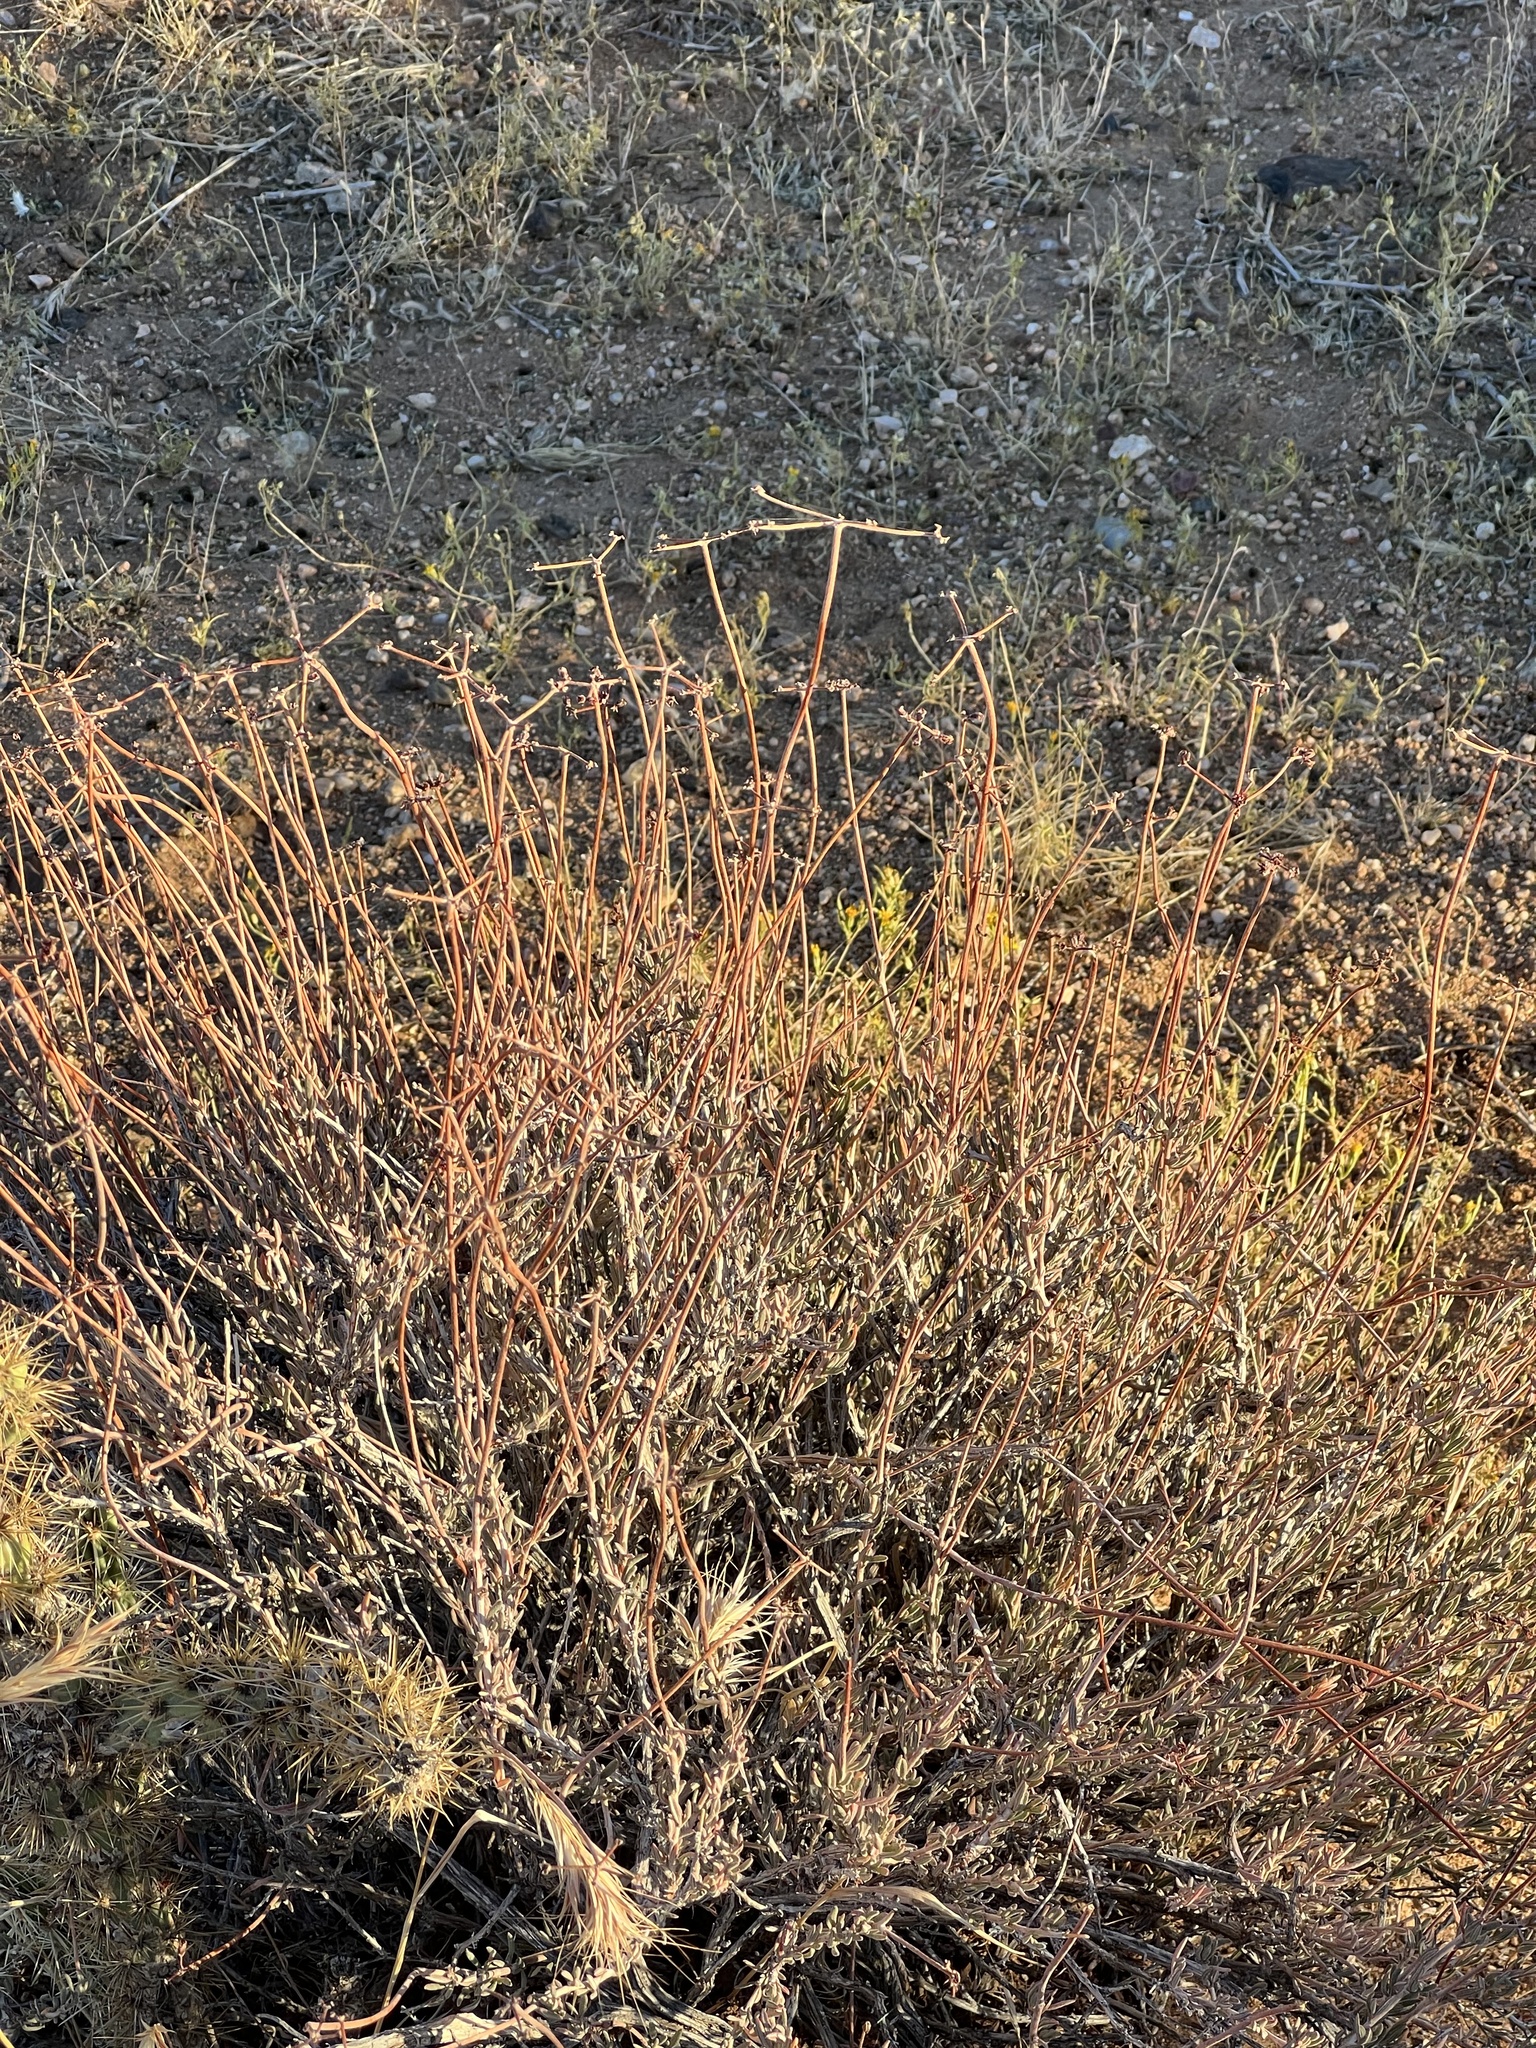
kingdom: Plantae
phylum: Tracheophyta
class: Magnoliopsida
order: Caryophyllales
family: Polygonaceae
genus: Eriogonum
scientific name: Eriogonum fasciculatum
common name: California wild buckwheat
